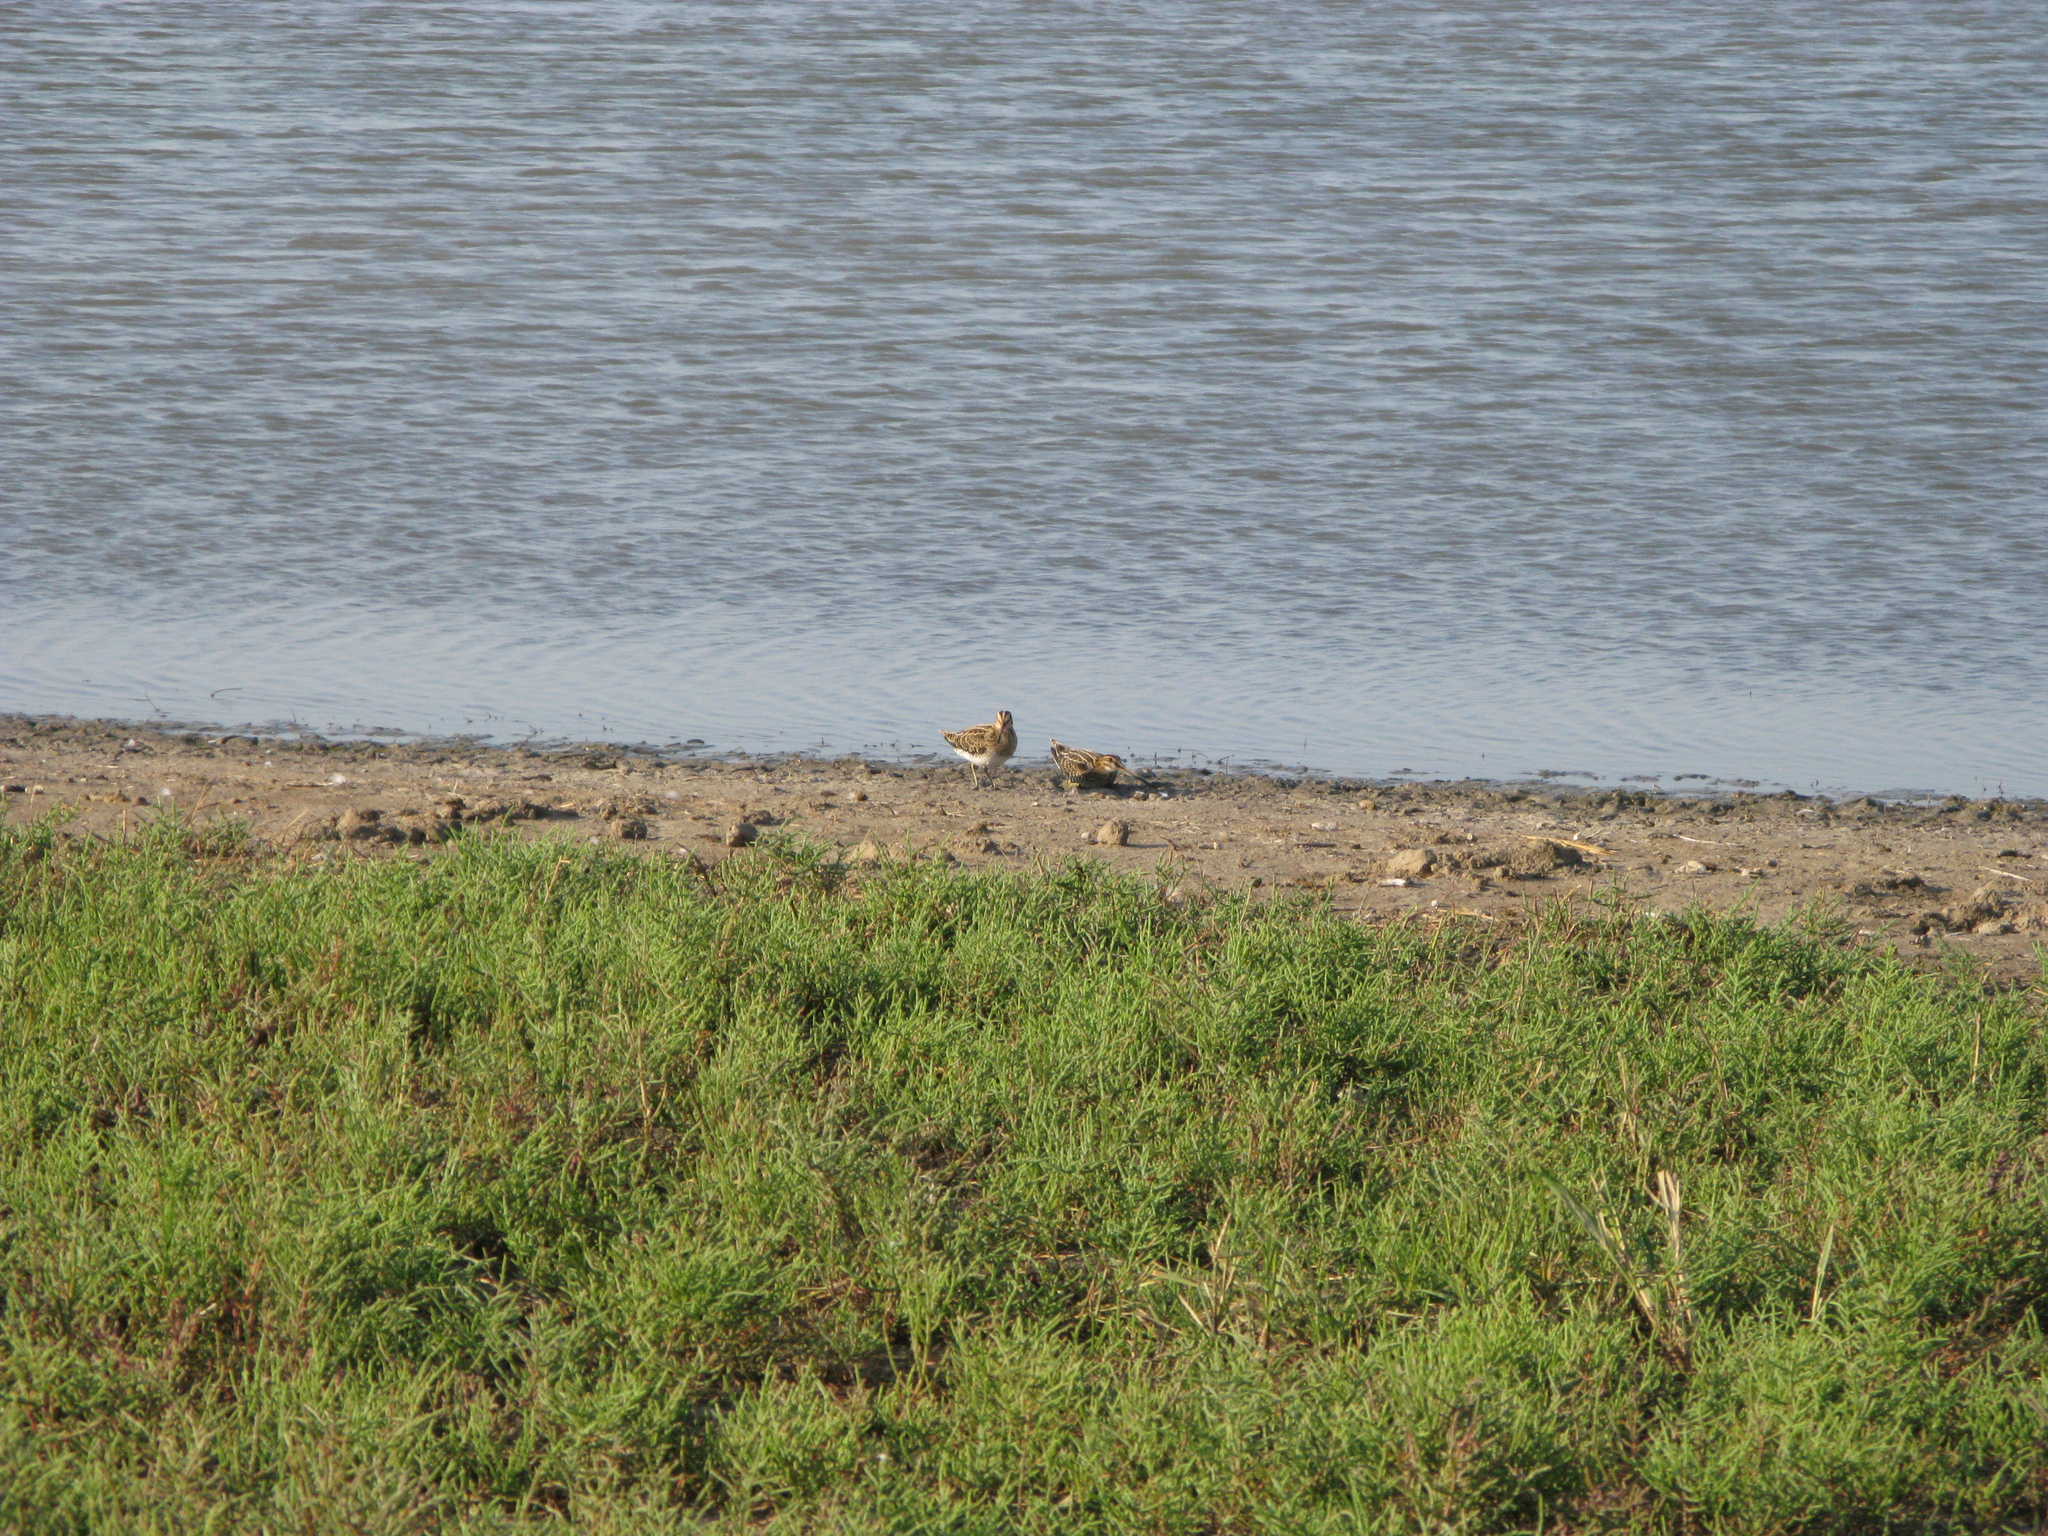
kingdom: Animalia
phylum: Chordata
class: Aves
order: Charadriiformes
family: Scolopacidae
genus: Gallinago
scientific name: Gallinago gallinago
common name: Common snipe
